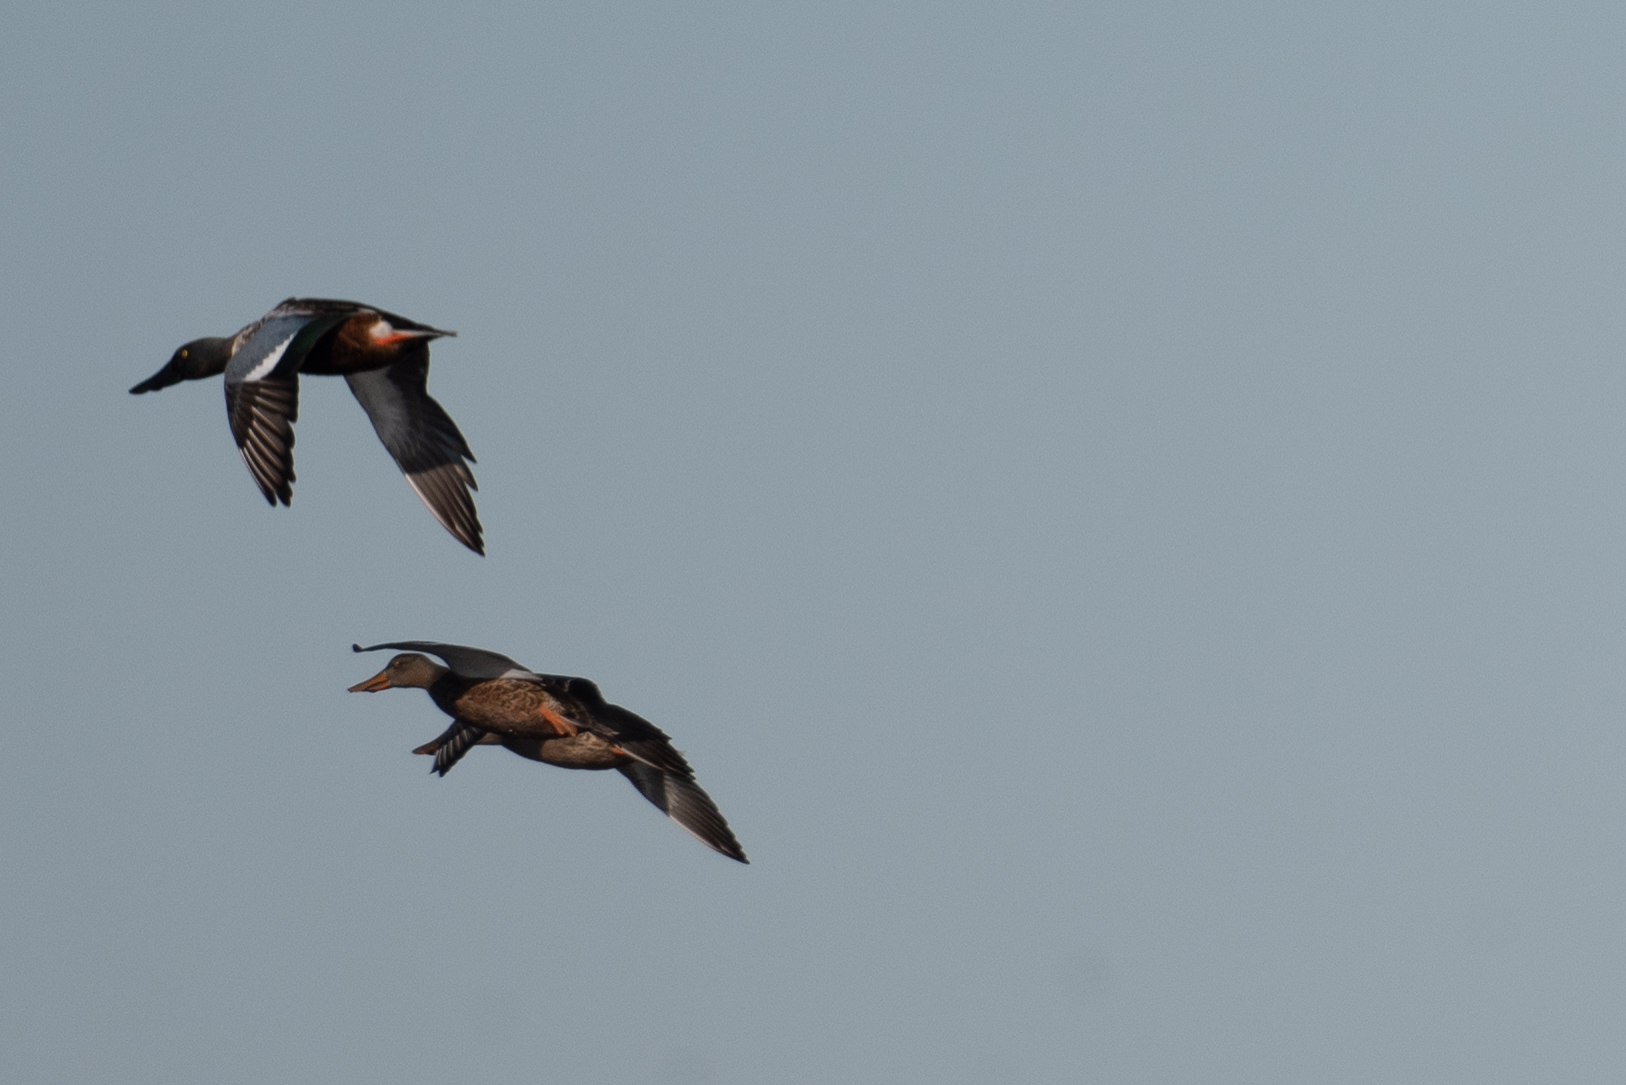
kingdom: Animalia
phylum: Chordata
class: Aves
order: Anseriformes
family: Anatidae
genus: Spatula
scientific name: Spatula clypeata
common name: Northern shoveler
